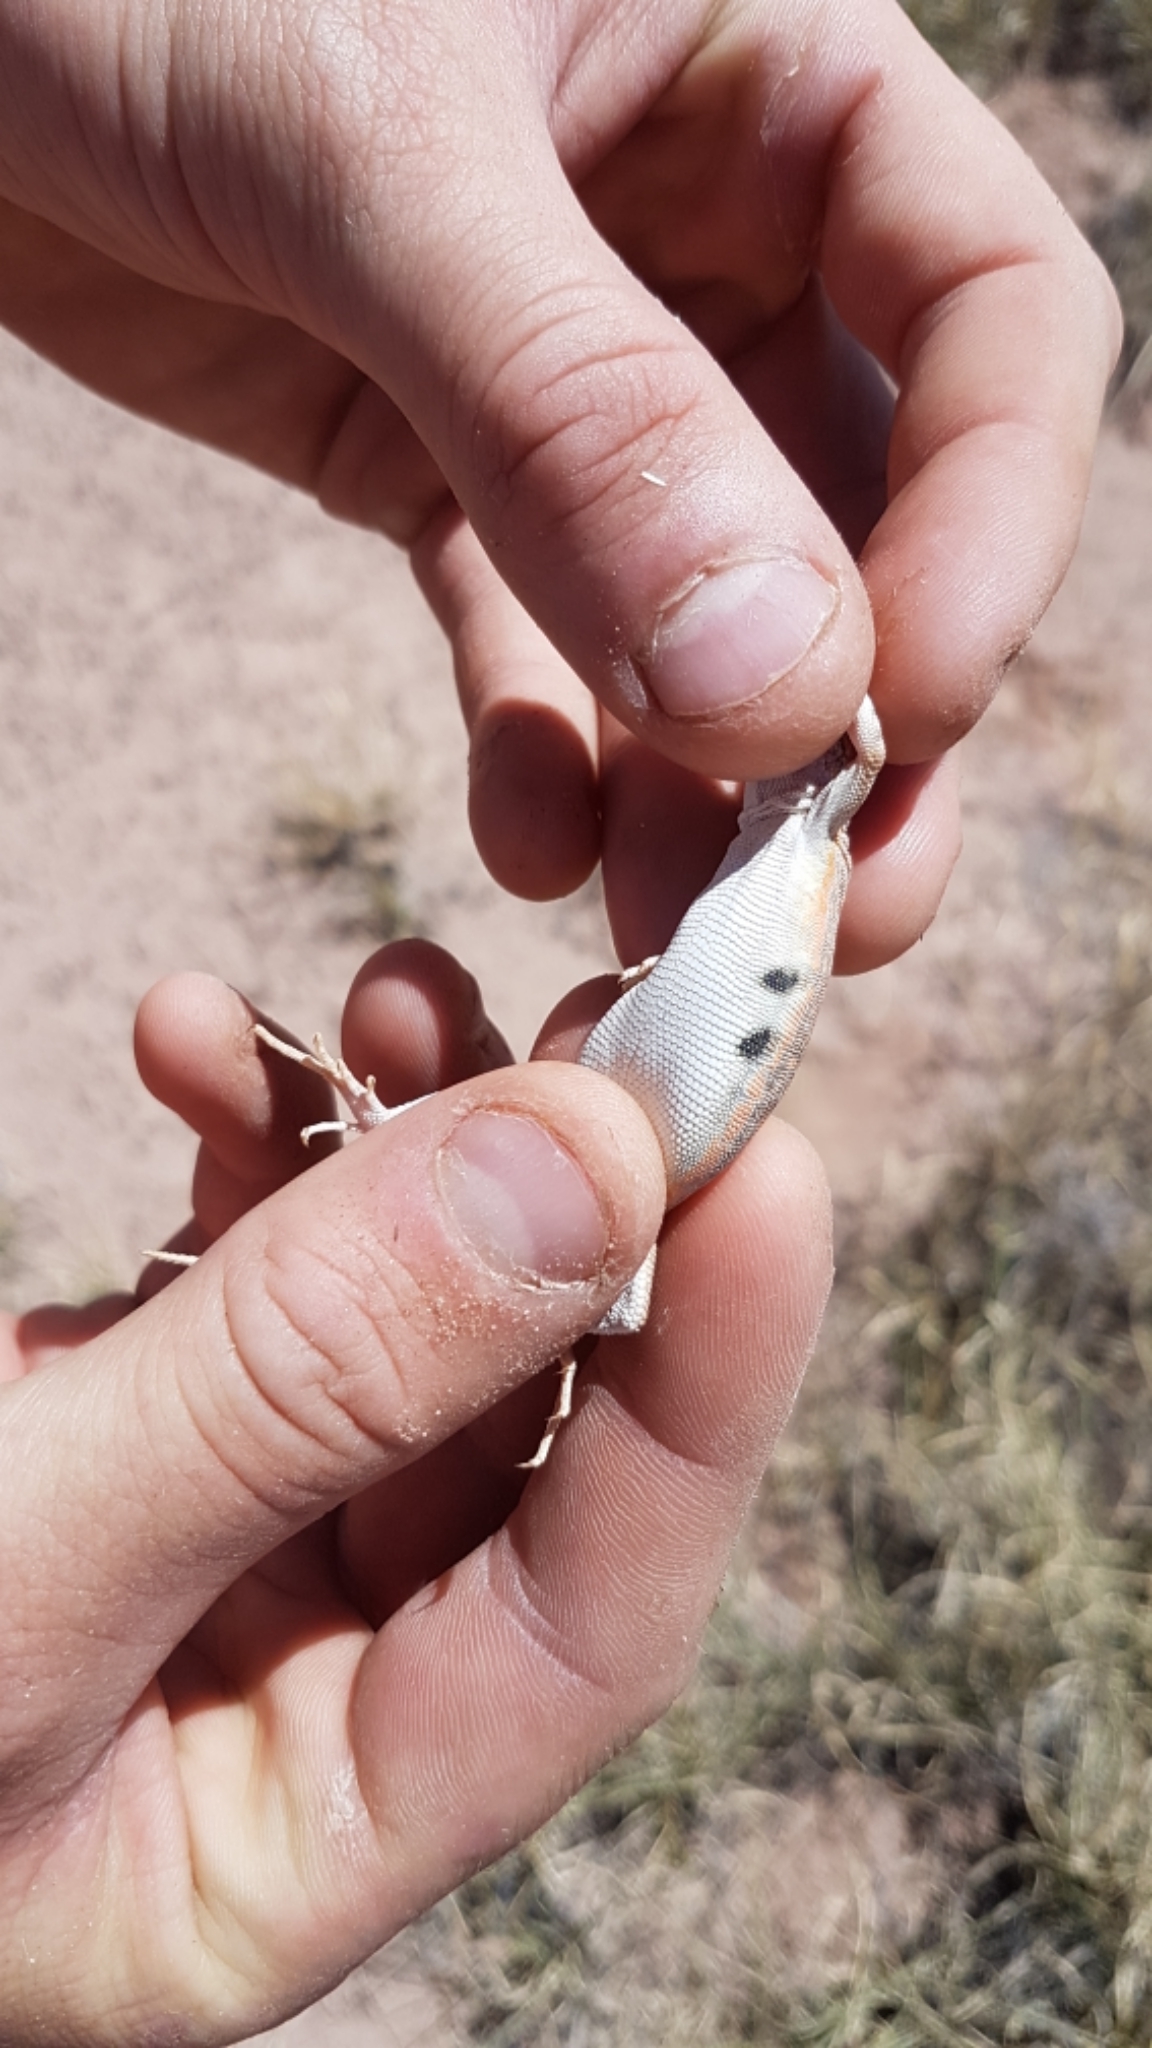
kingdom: Animalia
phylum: Chordata
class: Squamata
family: Phrynosomatidae
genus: Holbrookia
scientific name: Holbrookia maculata
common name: Lesser earless lizard
